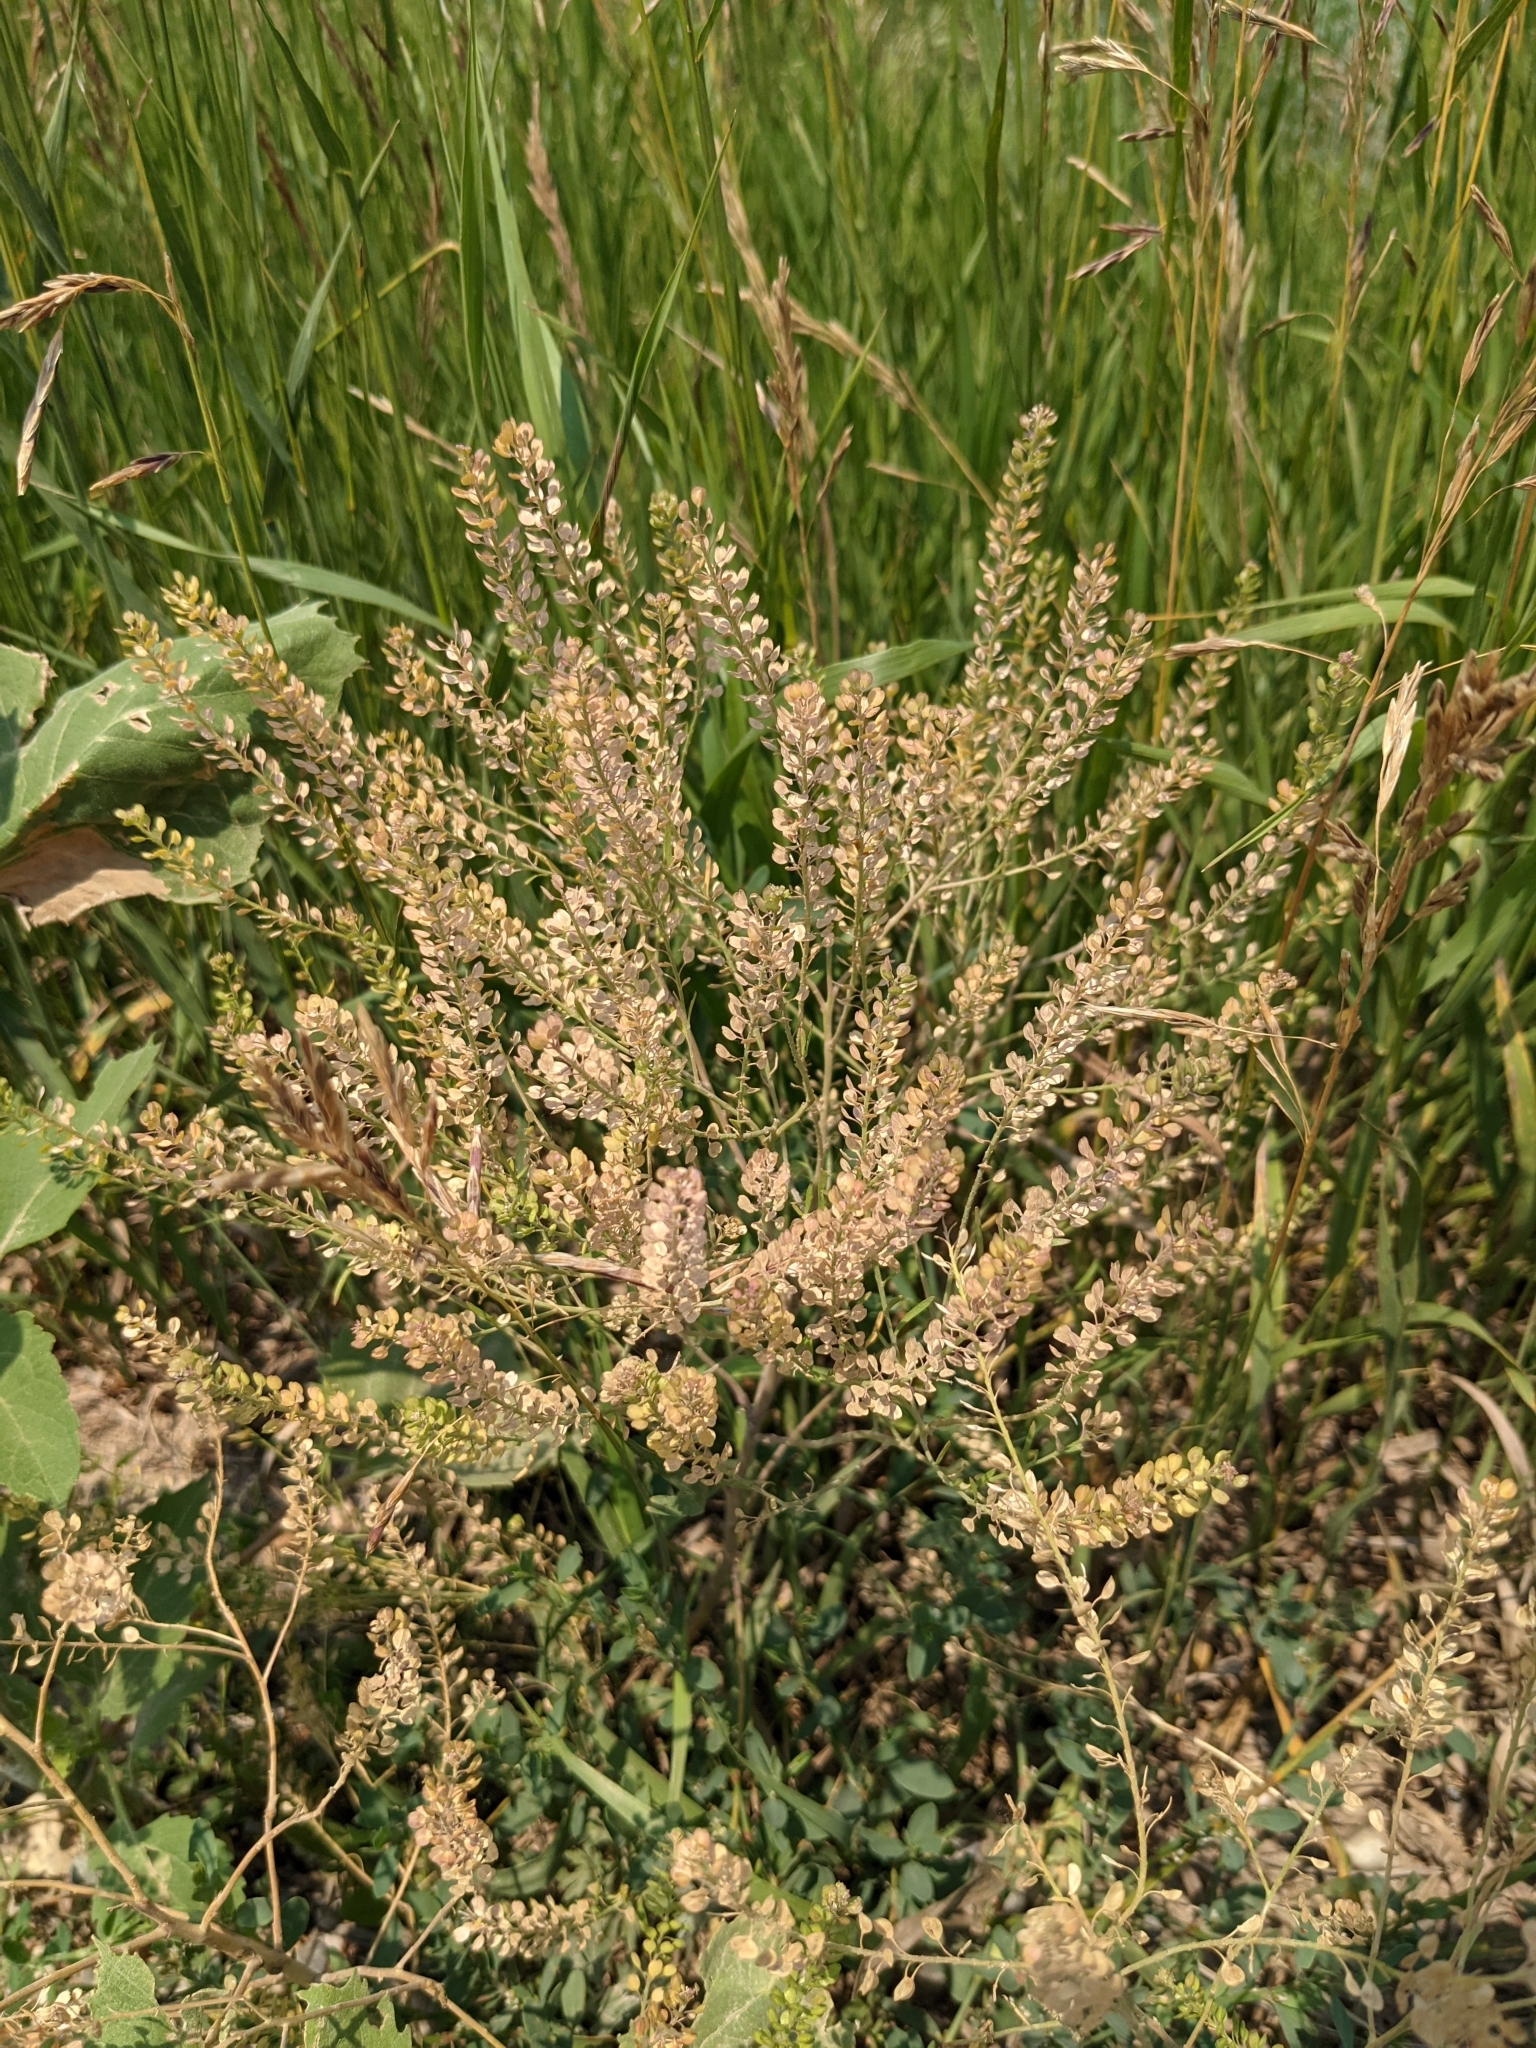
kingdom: Plantae
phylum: Tracheophyta
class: Magnoliopsida
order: Brassicales
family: Brassicaceae
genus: Lepidium
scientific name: Lepidium densiflorum
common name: Miner's pepperwort
